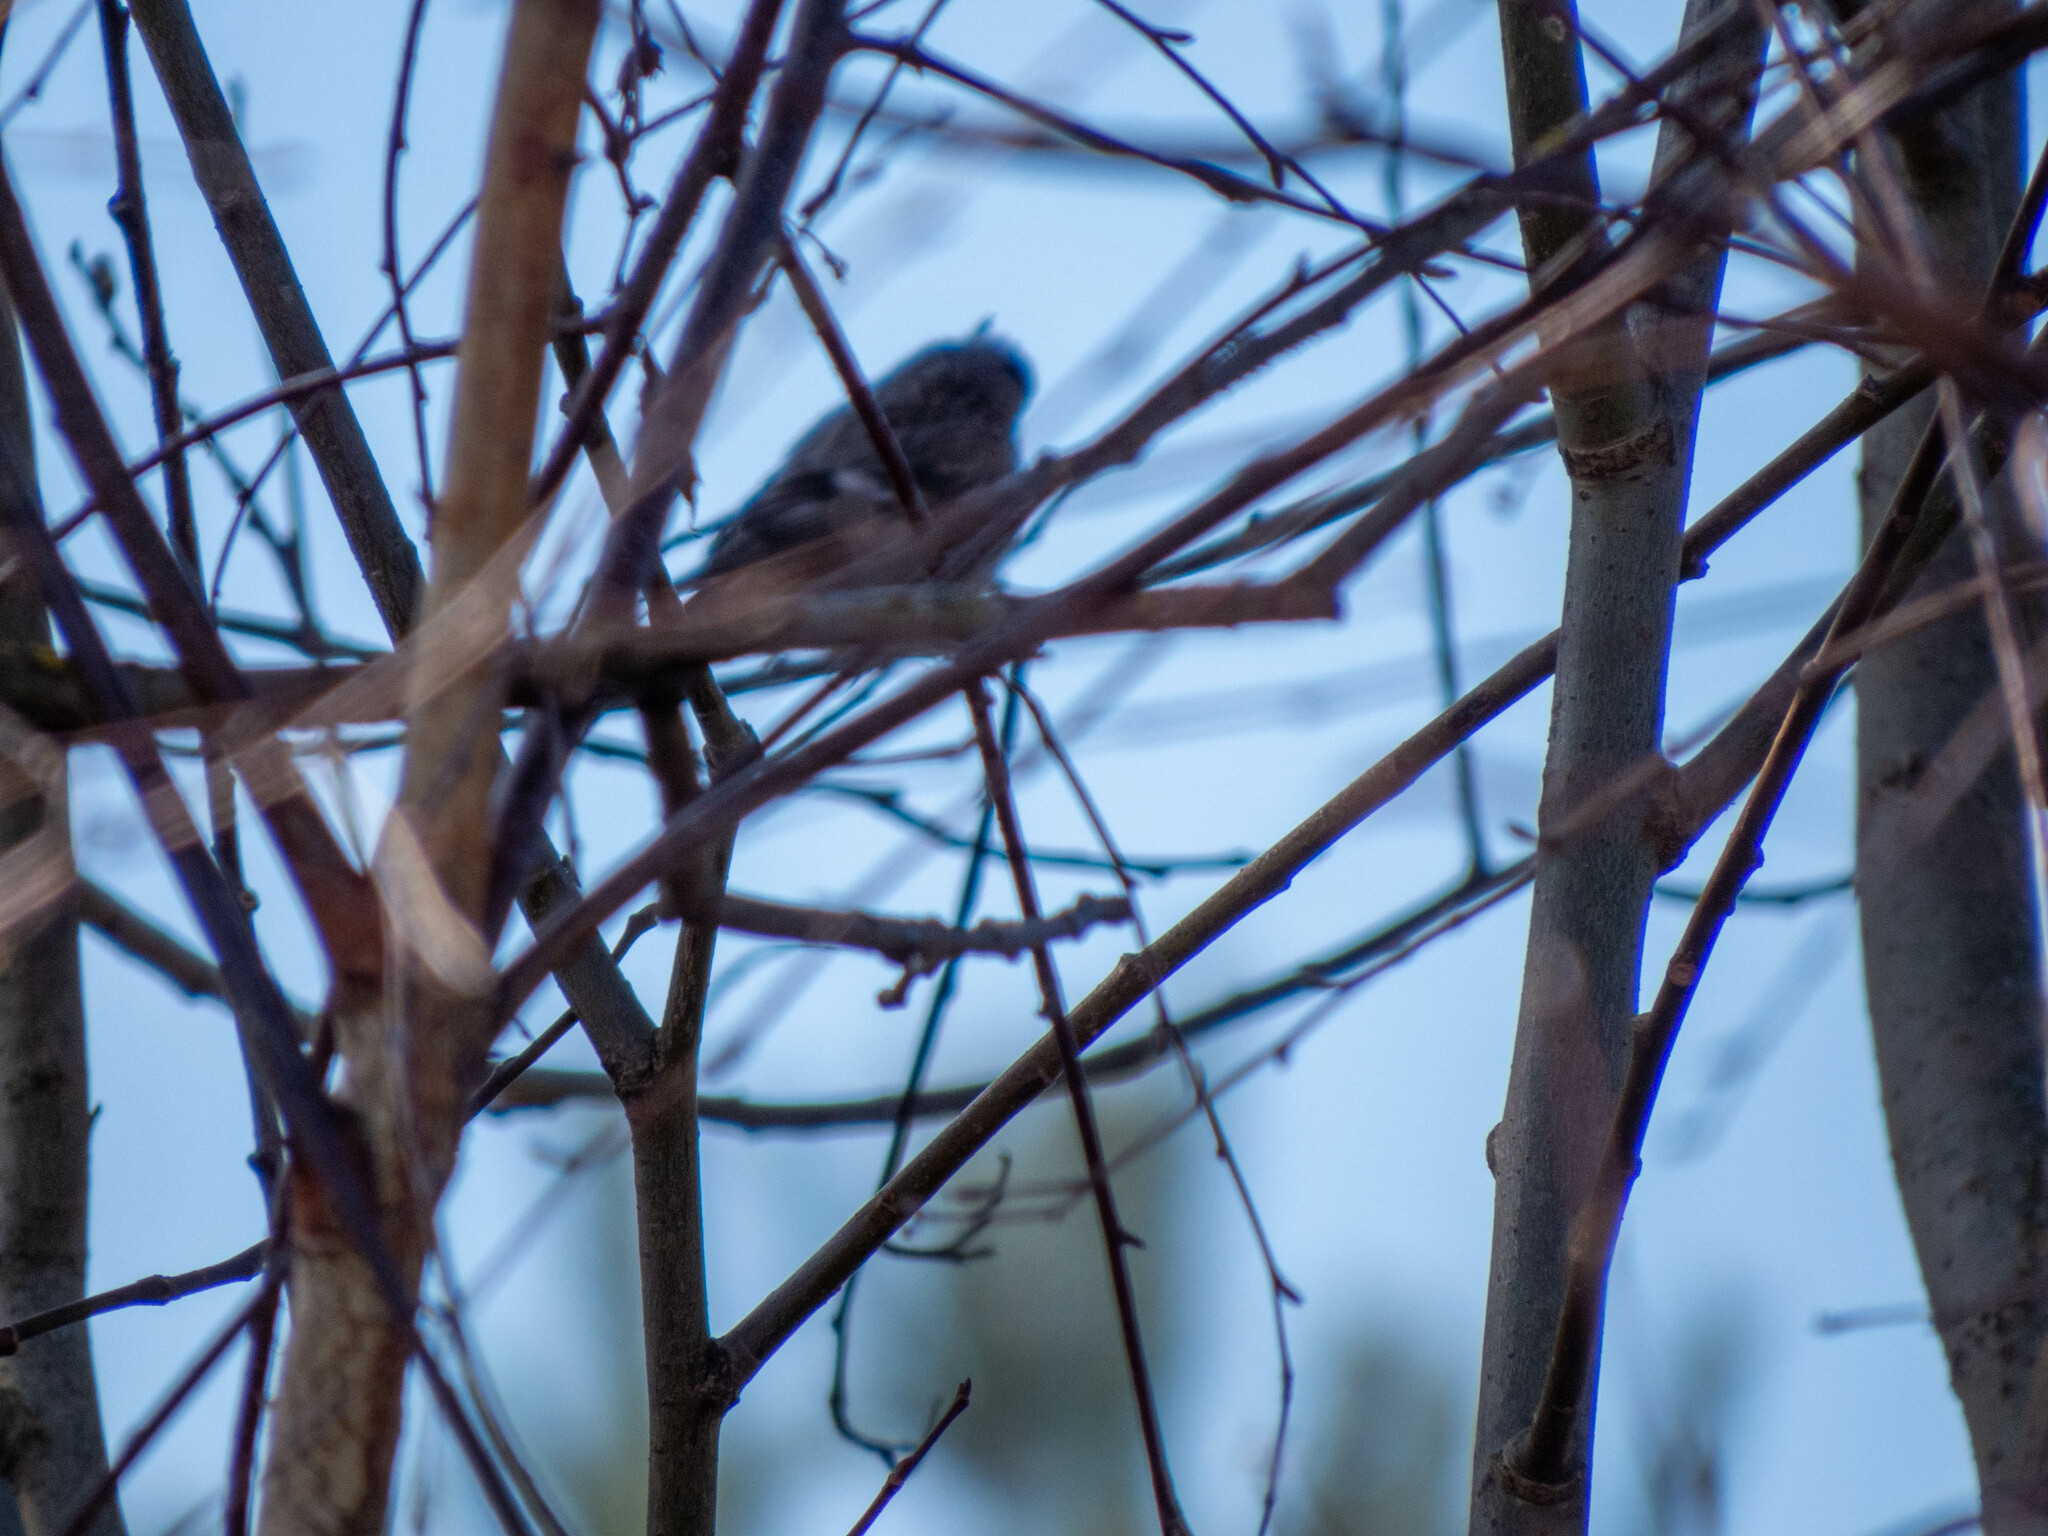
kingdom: Animalia
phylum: Chordata
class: Aves
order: Passeriformes
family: Fringillidae
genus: Acanthis
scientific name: Acanthis flammea
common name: Common redpoll
